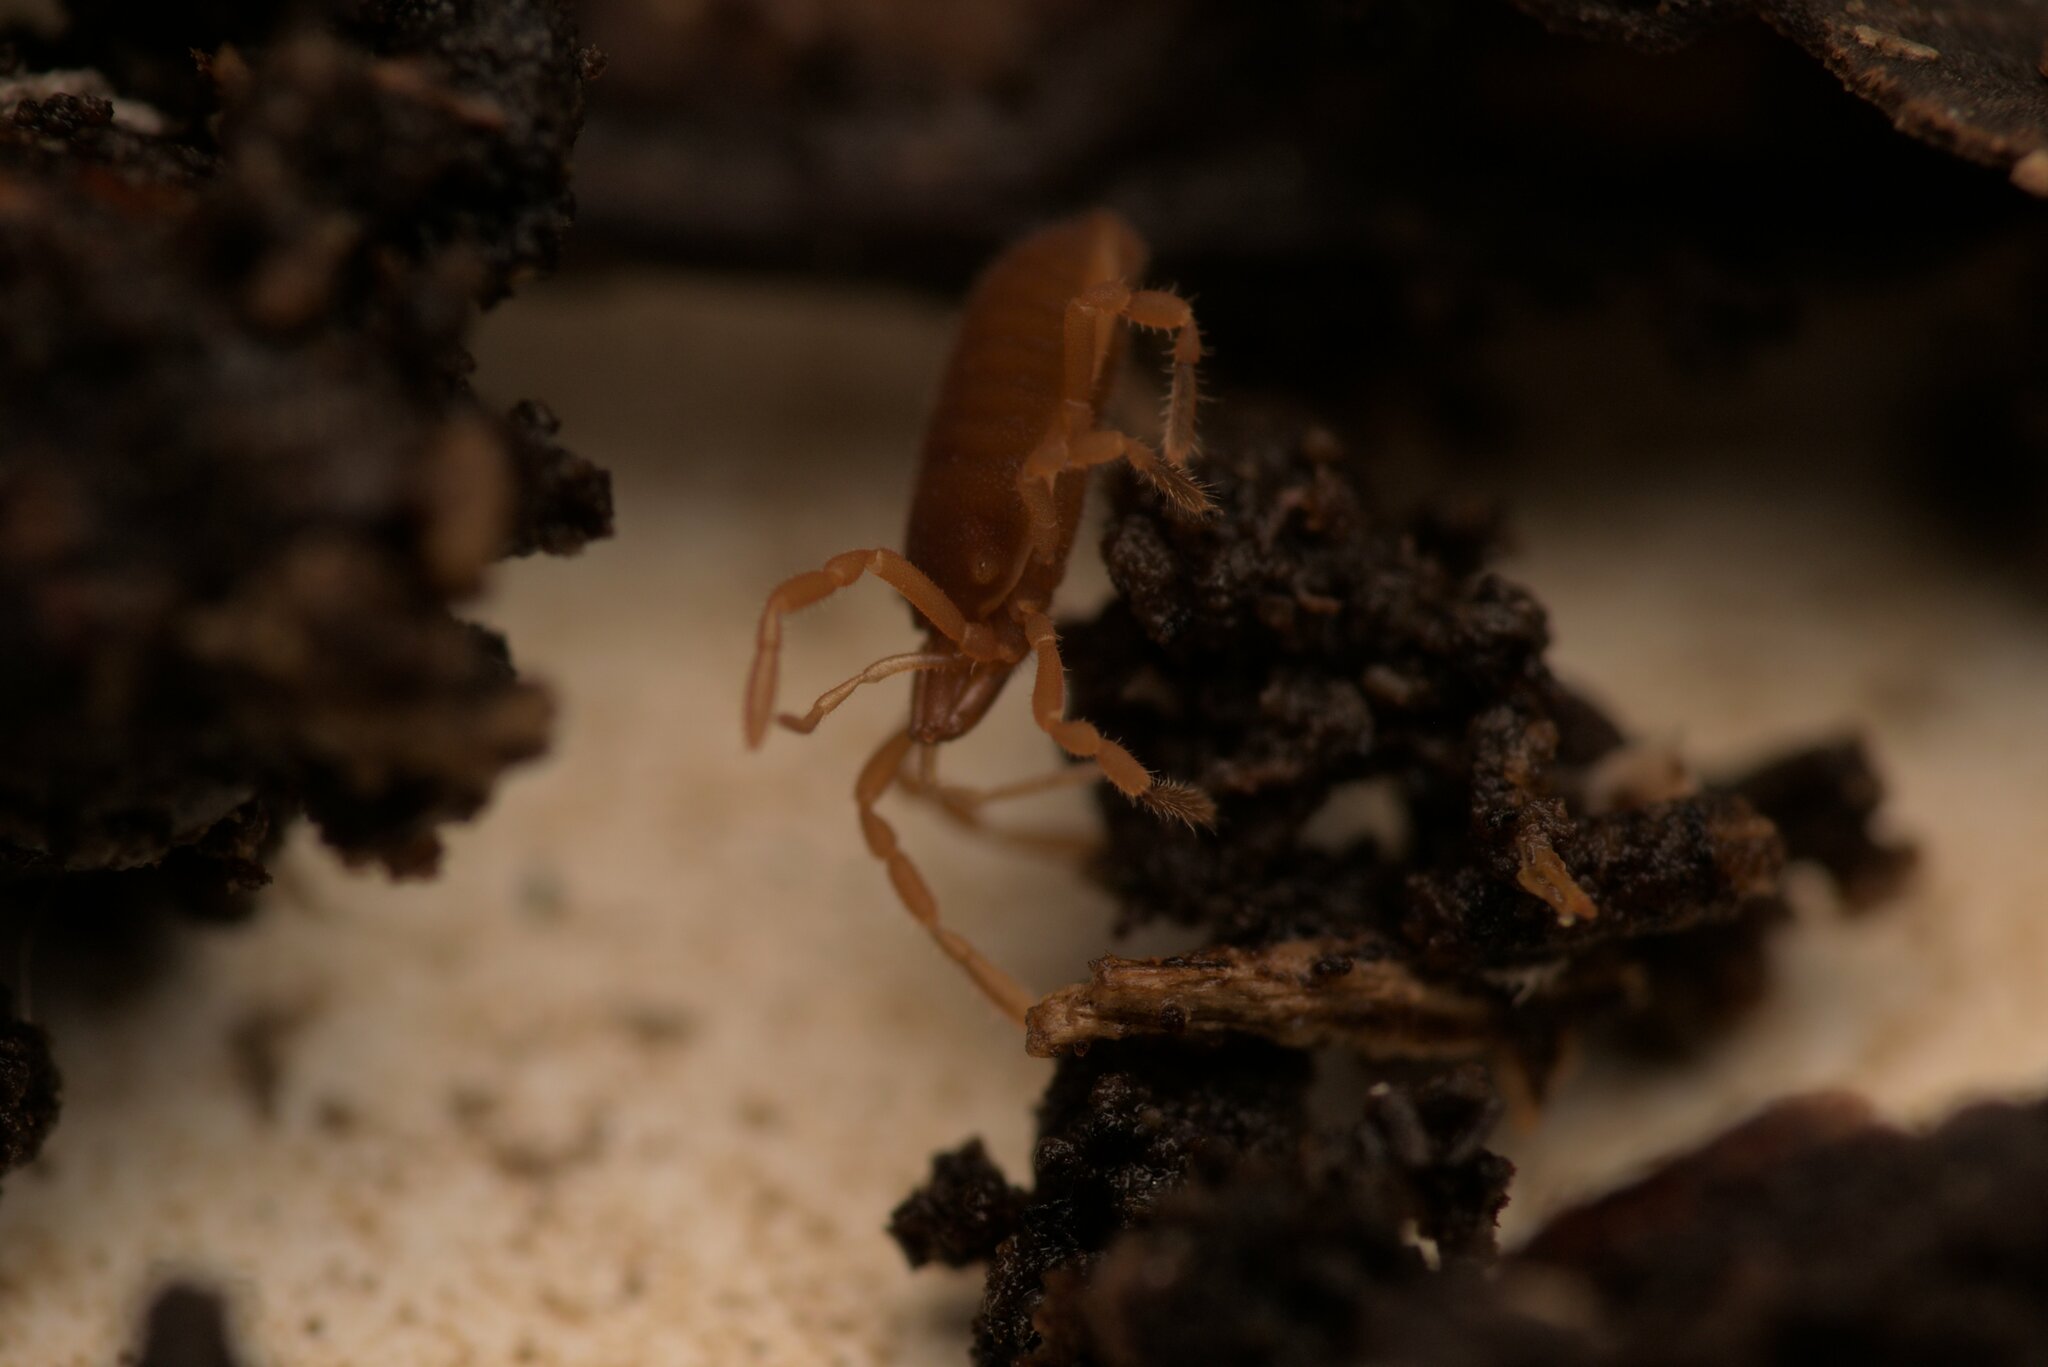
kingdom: Animalia
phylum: Arthropoda
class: Arachnida
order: Opiliones
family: Sironidae
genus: Siro
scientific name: Siro rubens
